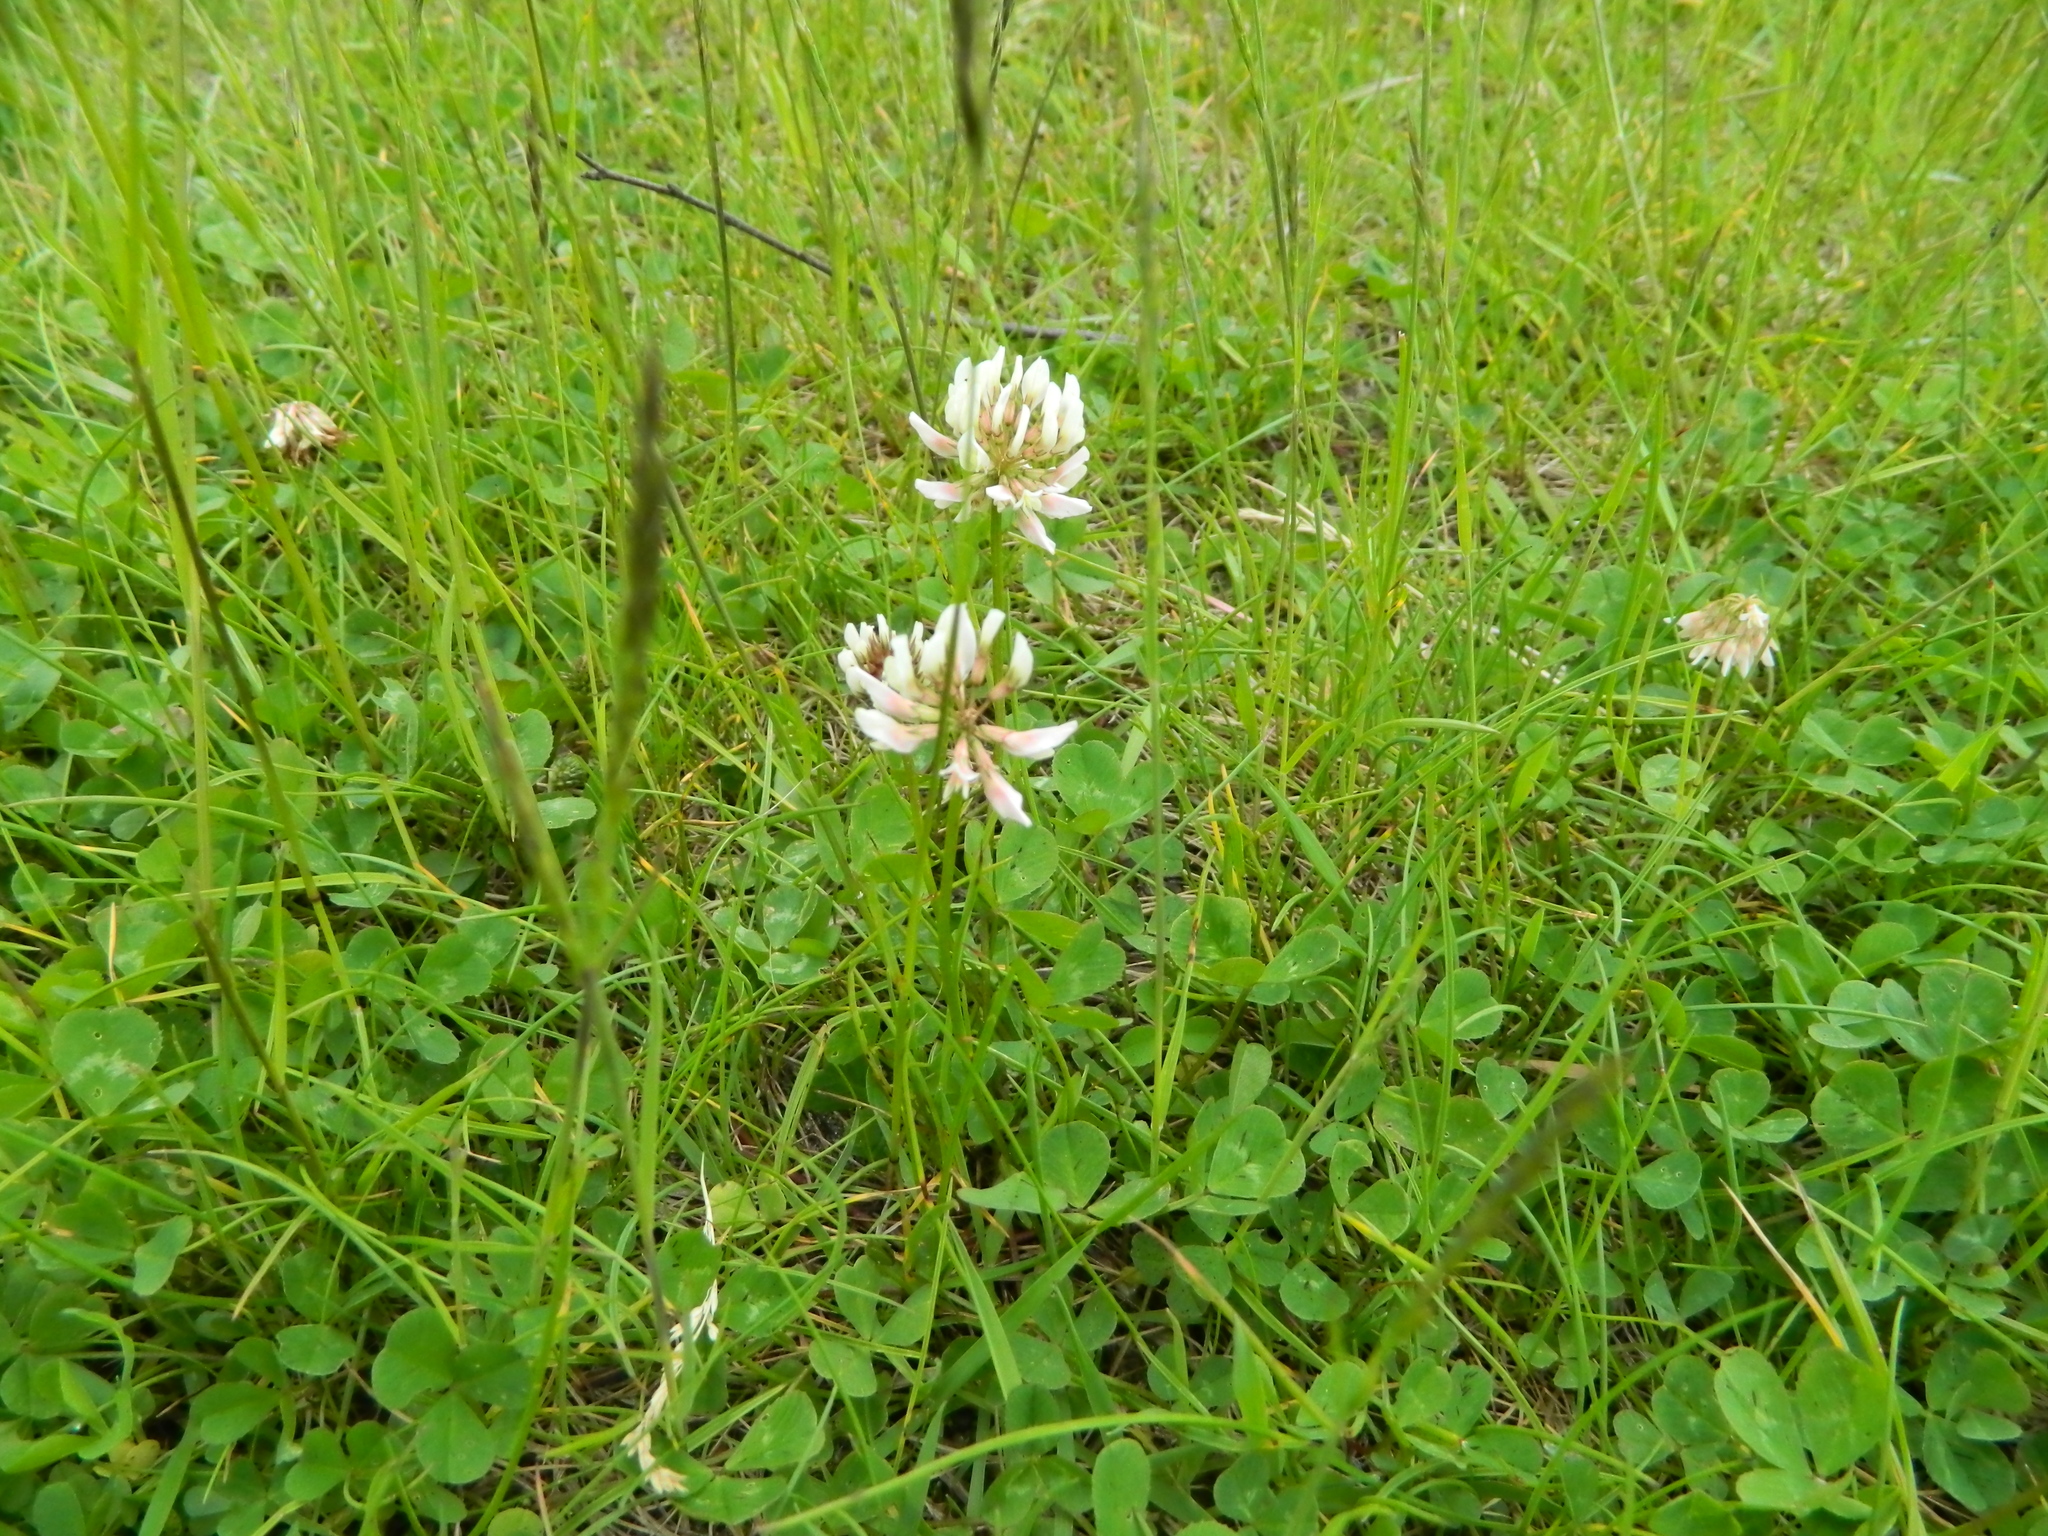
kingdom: Plantae
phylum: Tracheophyta
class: Magnoliopsida
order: Fabales
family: Fabaceae
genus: Trifolium
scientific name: Trifolium repens
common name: White clover
